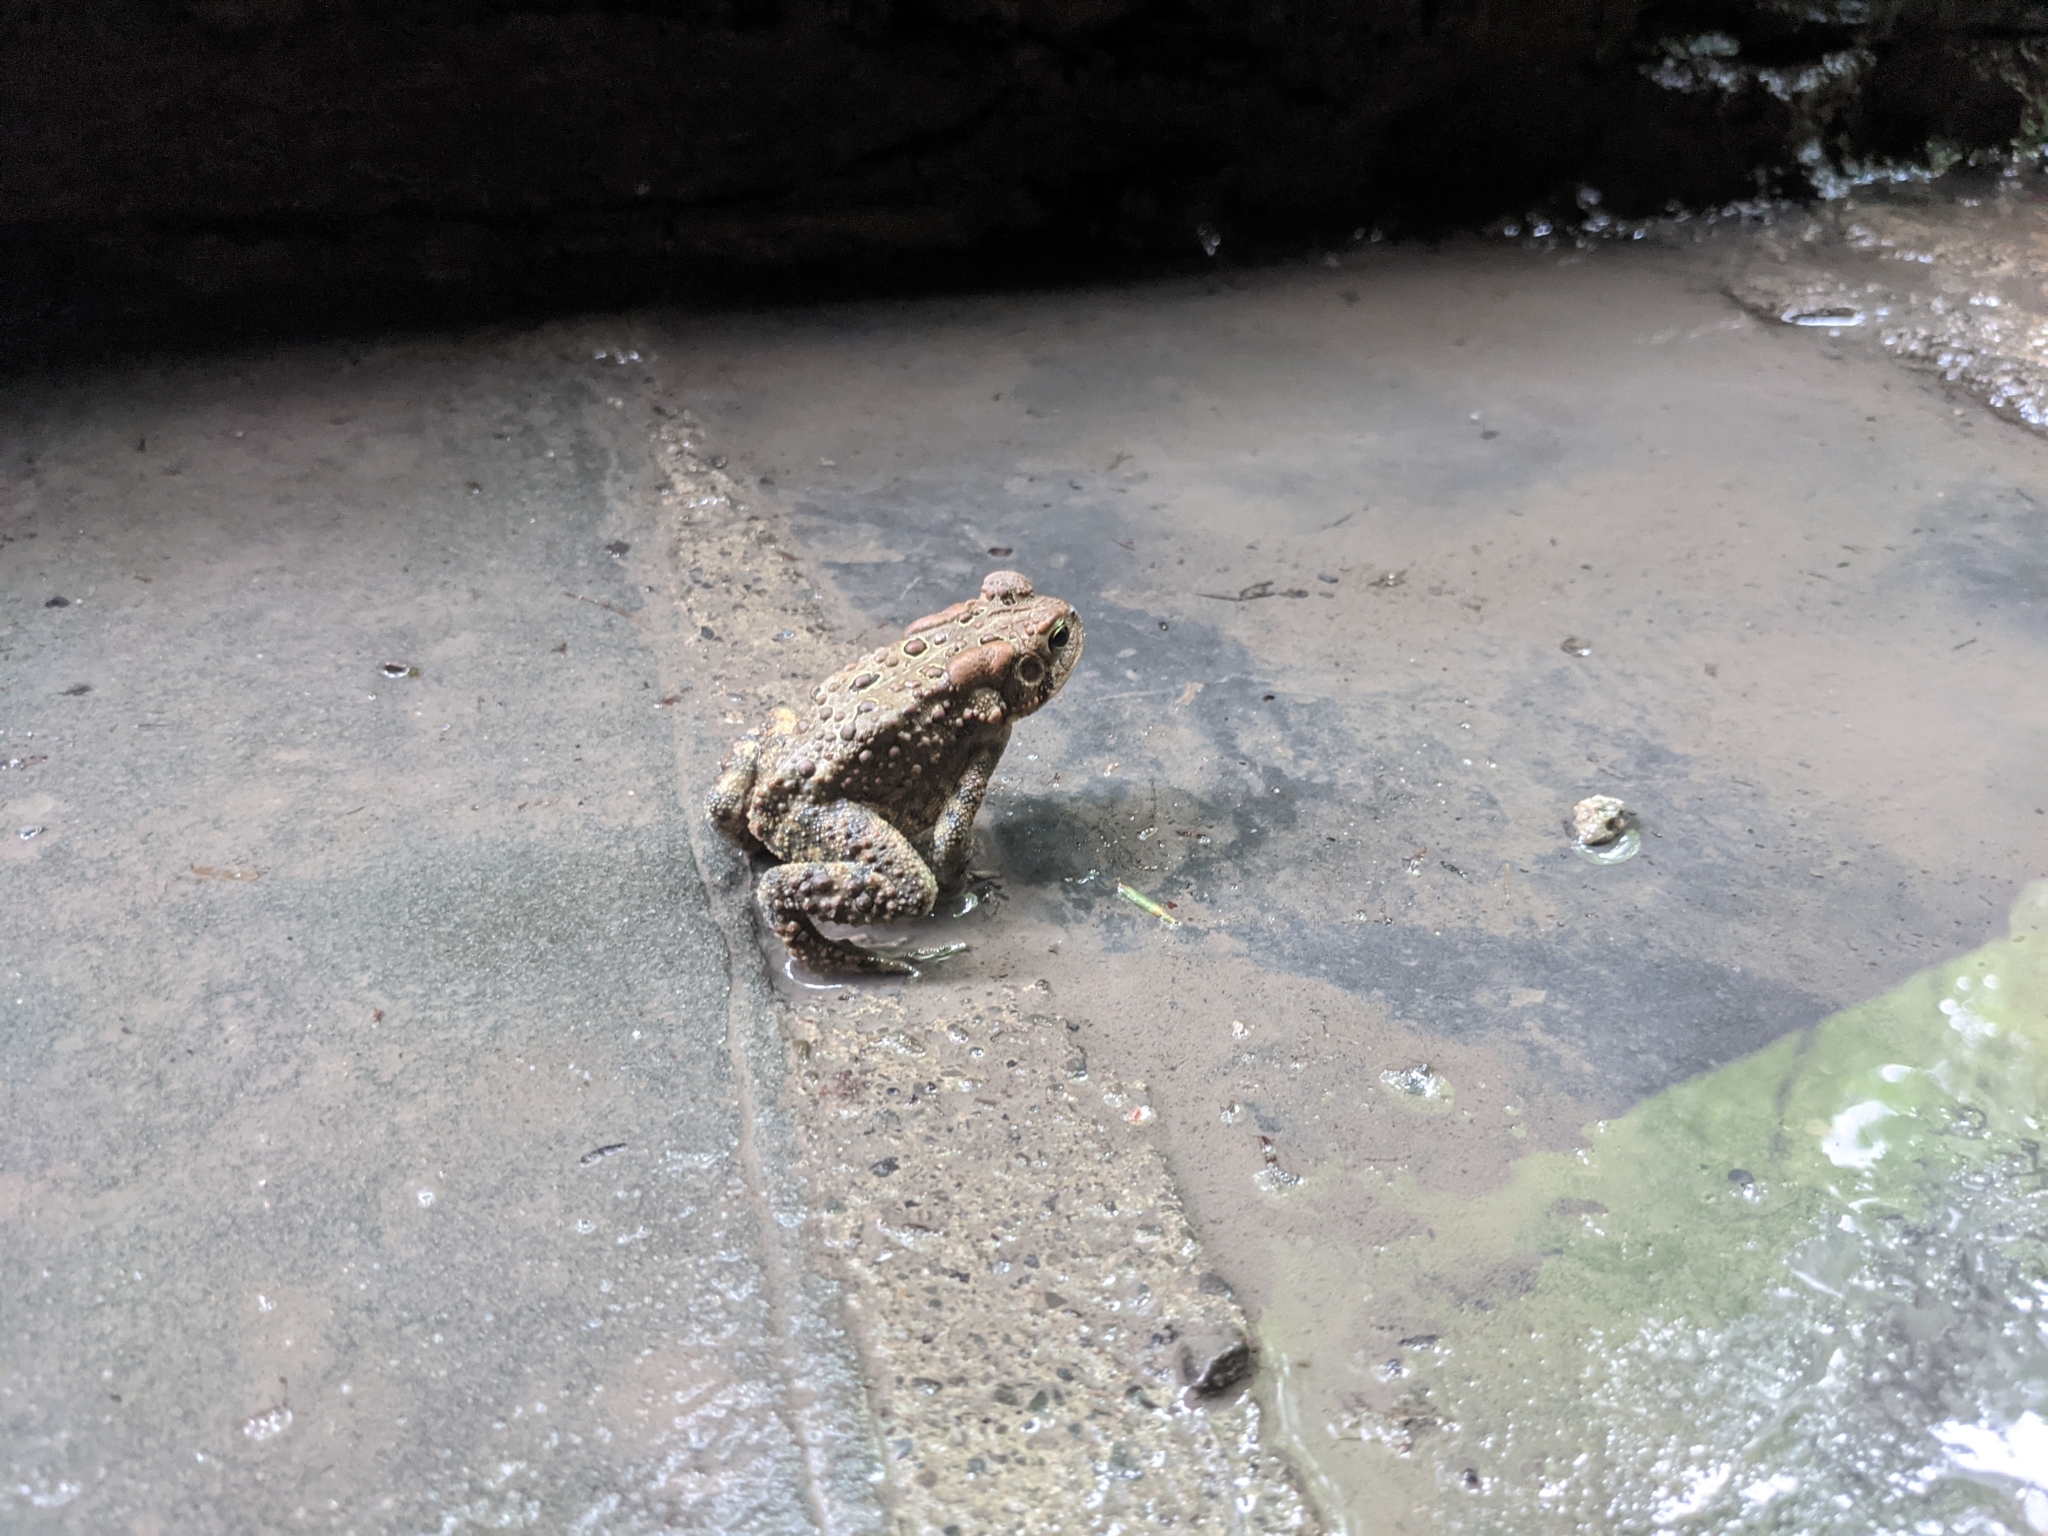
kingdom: Animalia
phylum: Chordata
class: Amphibia
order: Anura
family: Bufonidae
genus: Anaxyrus
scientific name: Anaxyrus americanus
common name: American toad
